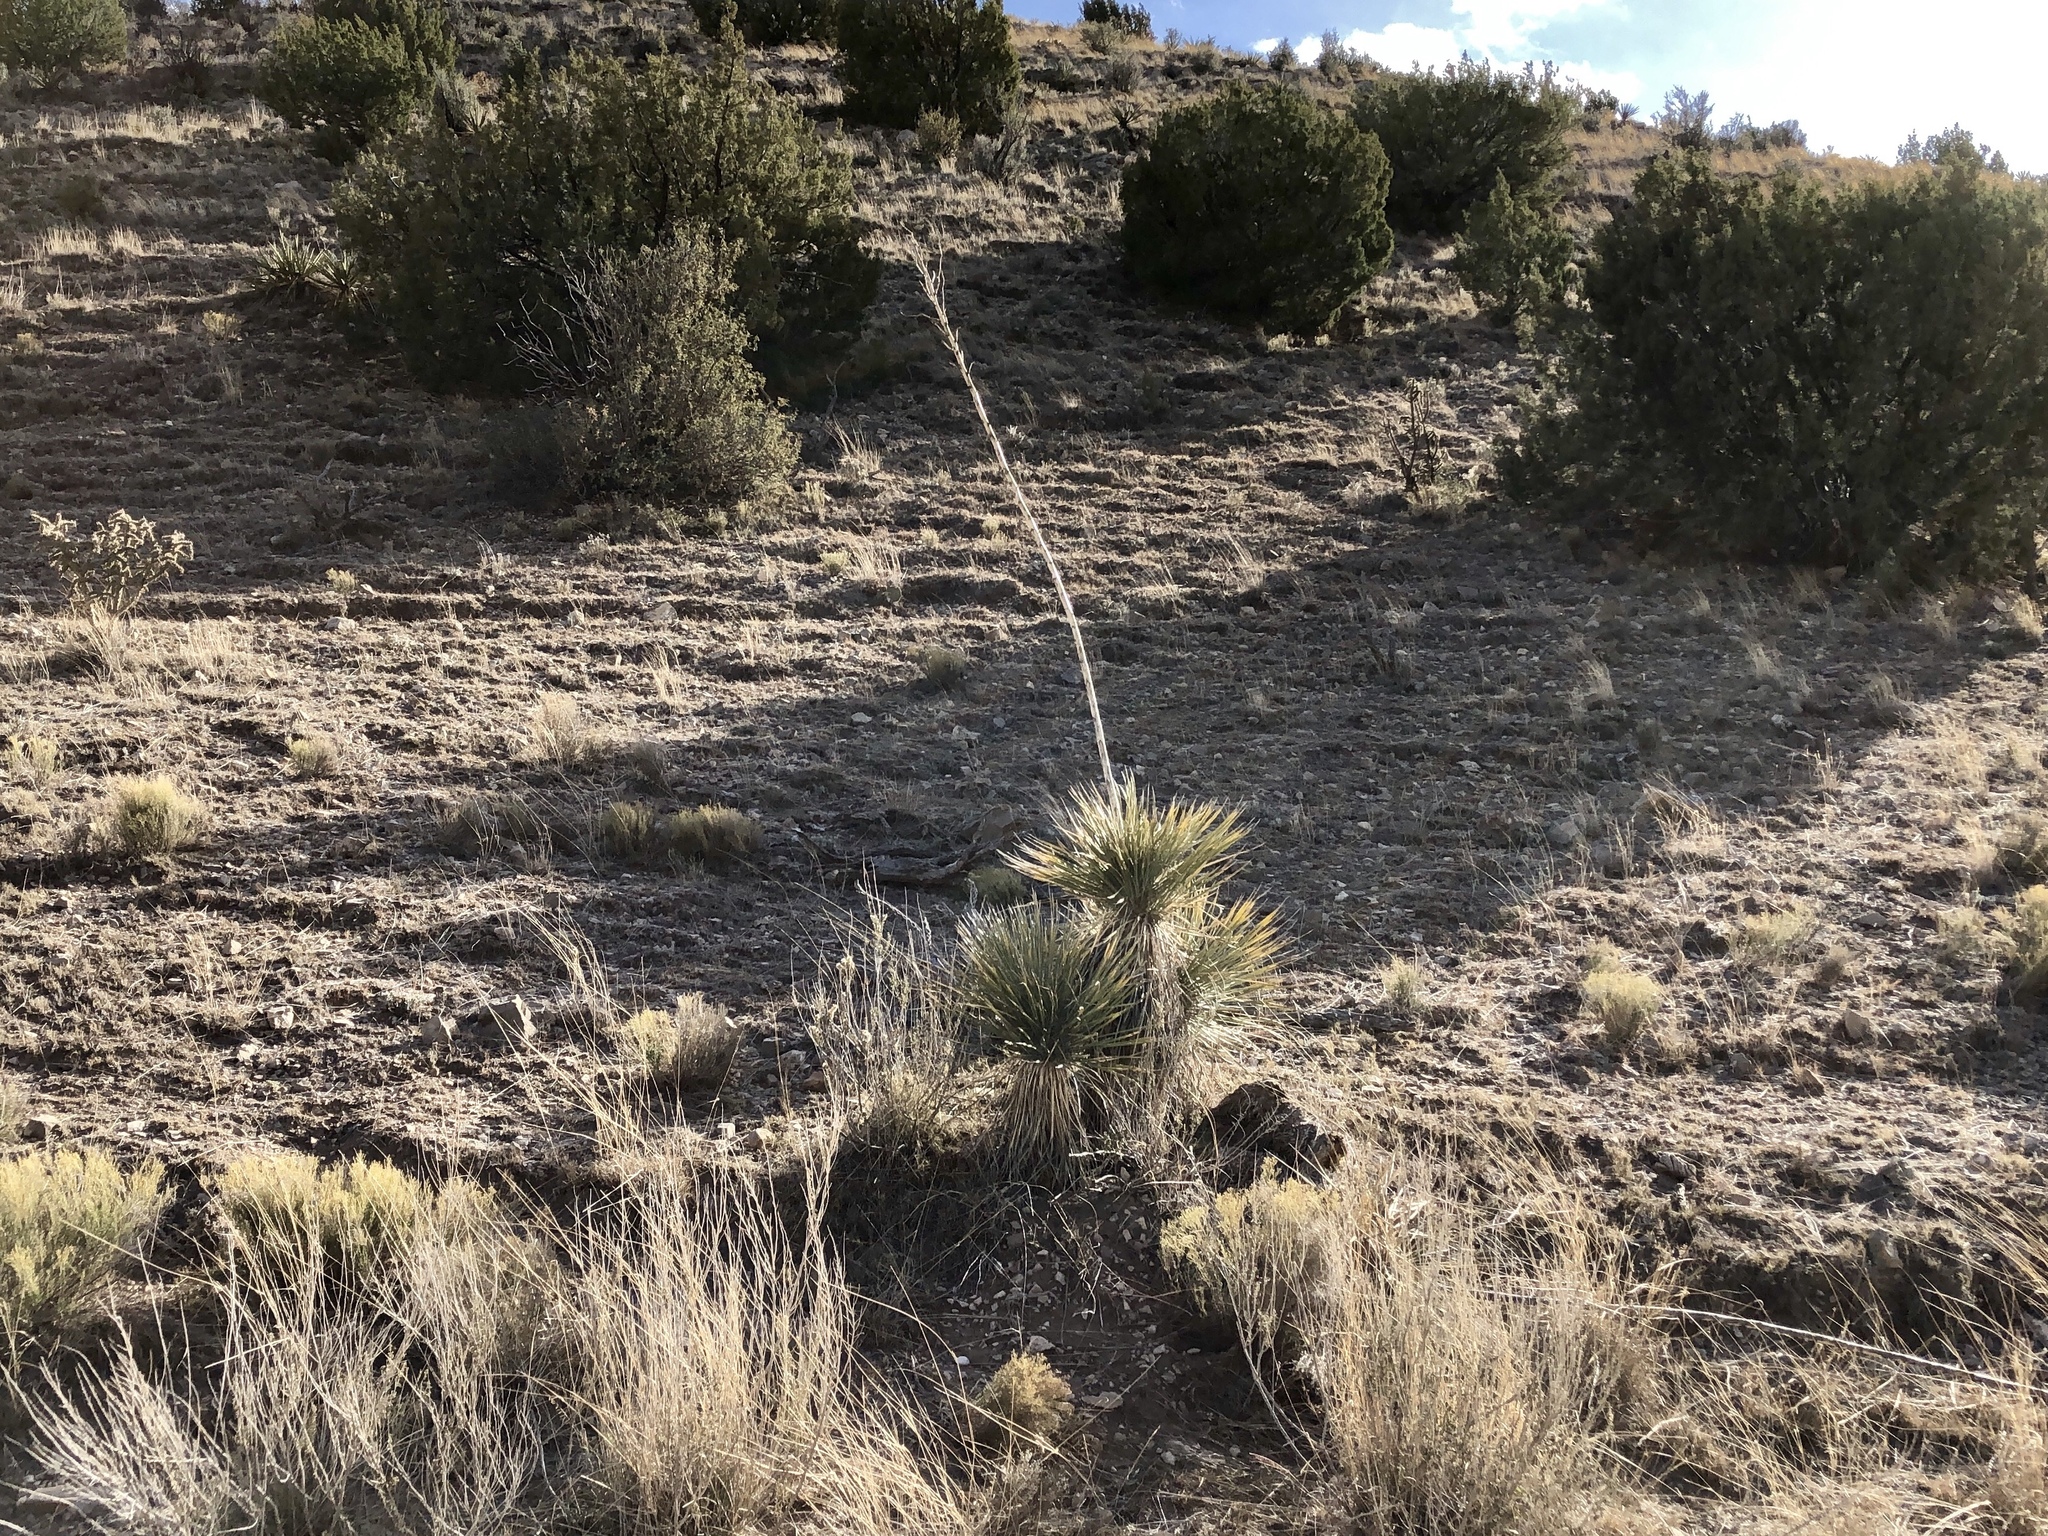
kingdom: Plantae
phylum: Tracheophyta
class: Liliopsida
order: Asparagales
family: Asparagaceae
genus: Yucca
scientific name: Yucca elata
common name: Palmella
